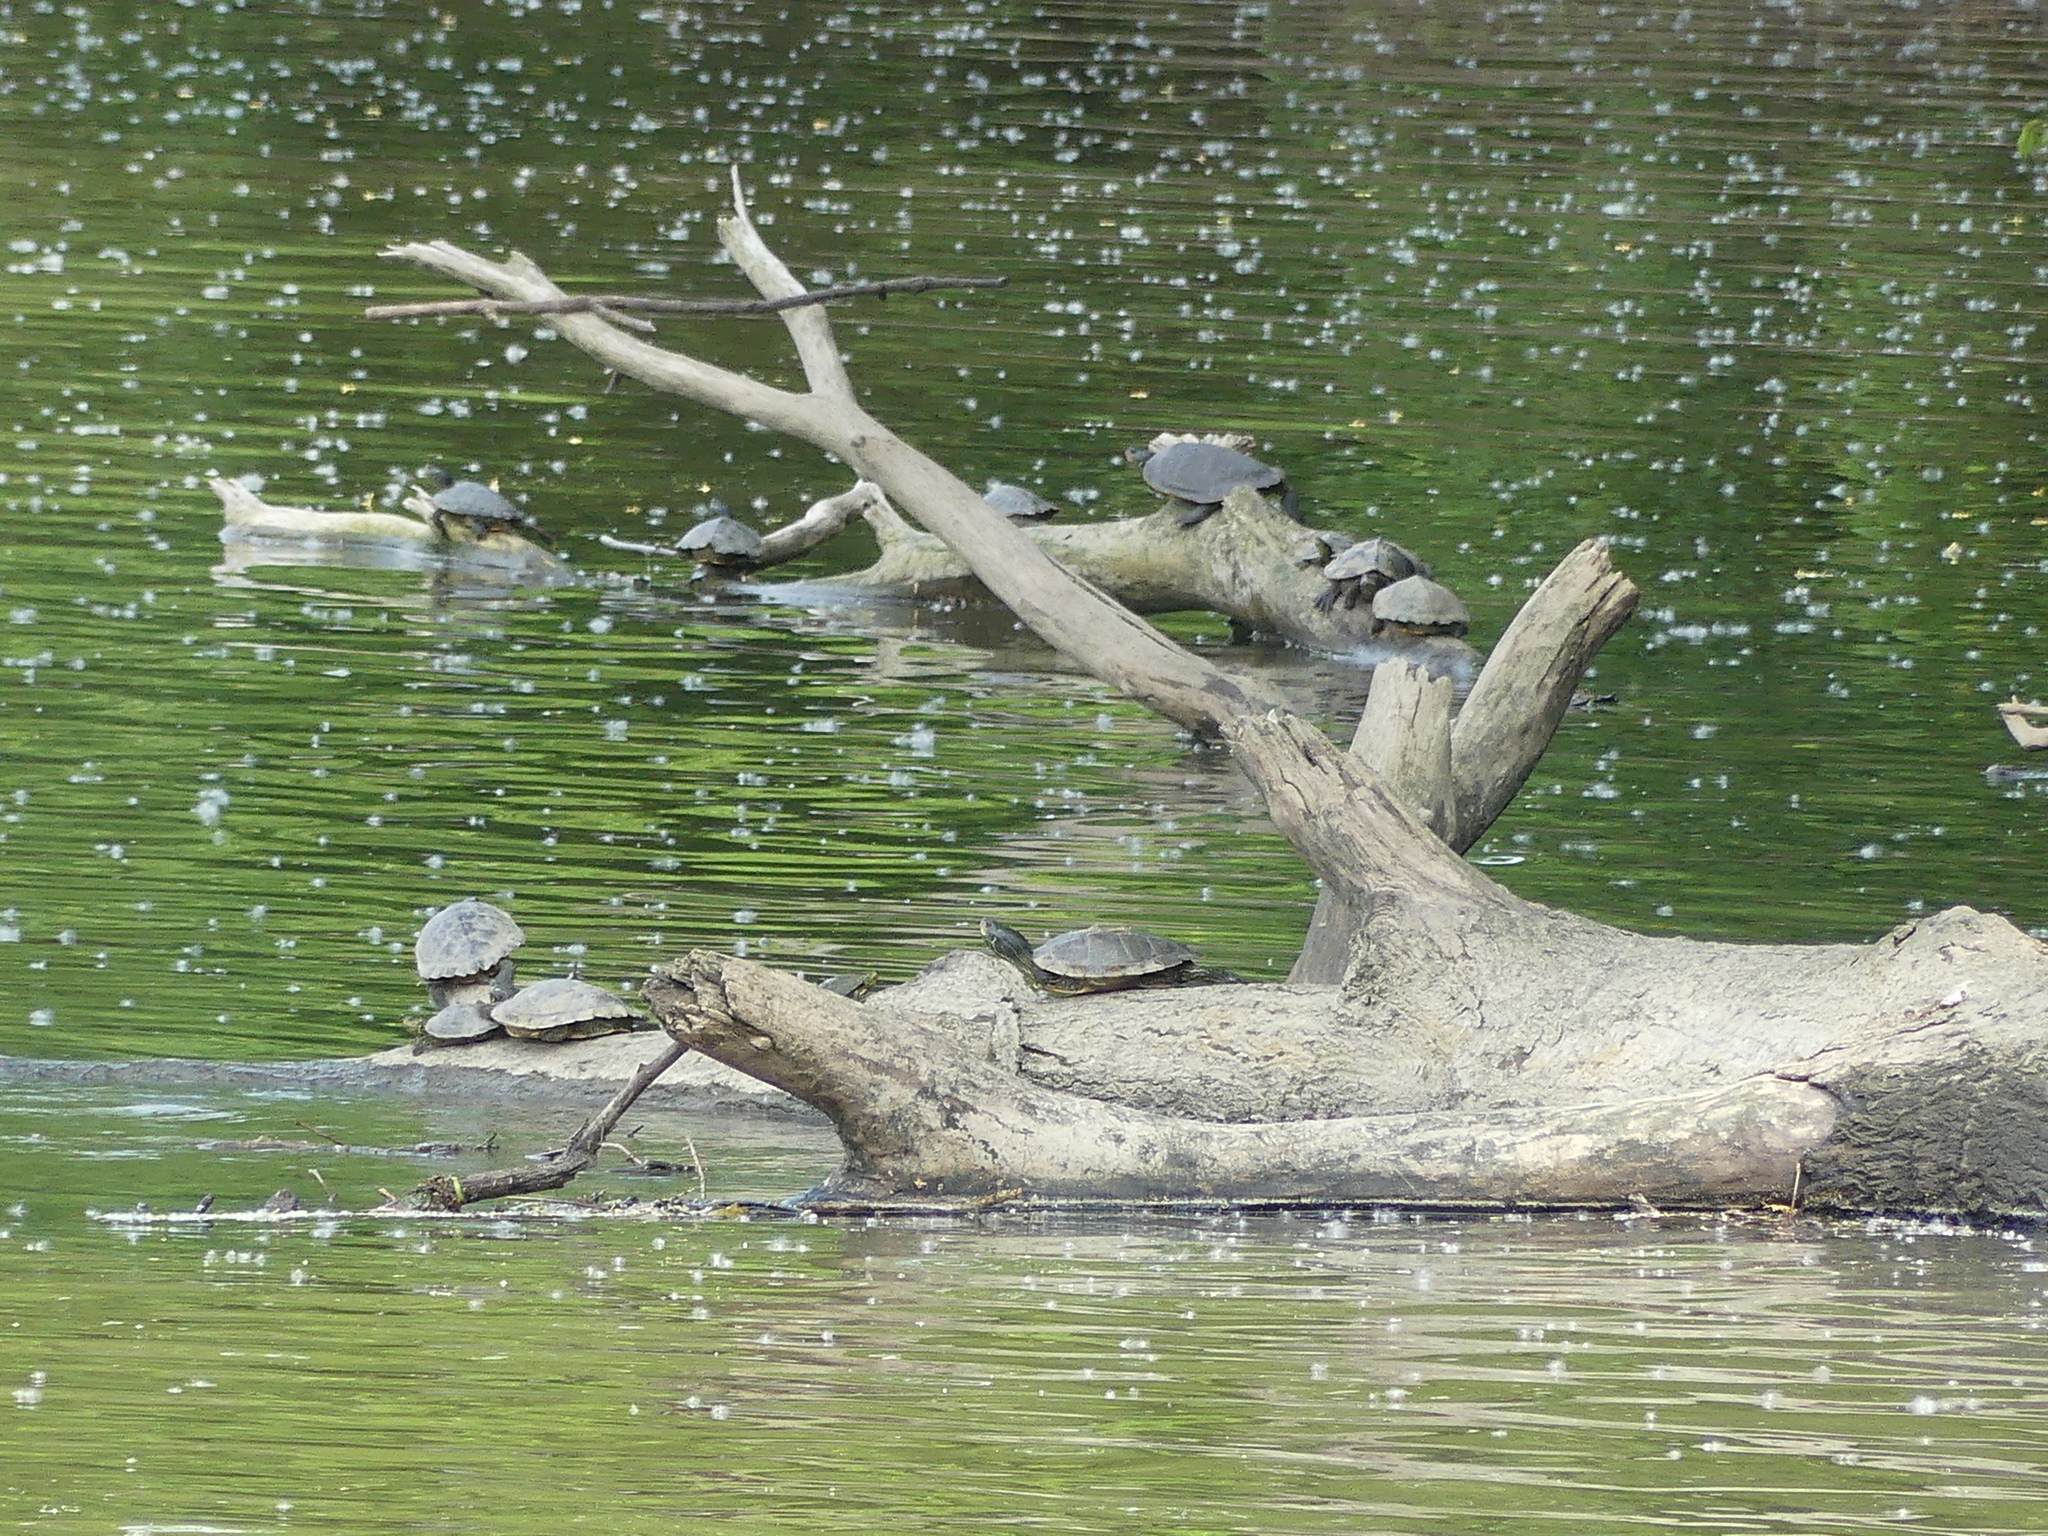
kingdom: Animalia
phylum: Chordata
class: Testudines
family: Emydidae
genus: Graptemys
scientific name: Graptemys geographica
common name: Common map turtle
